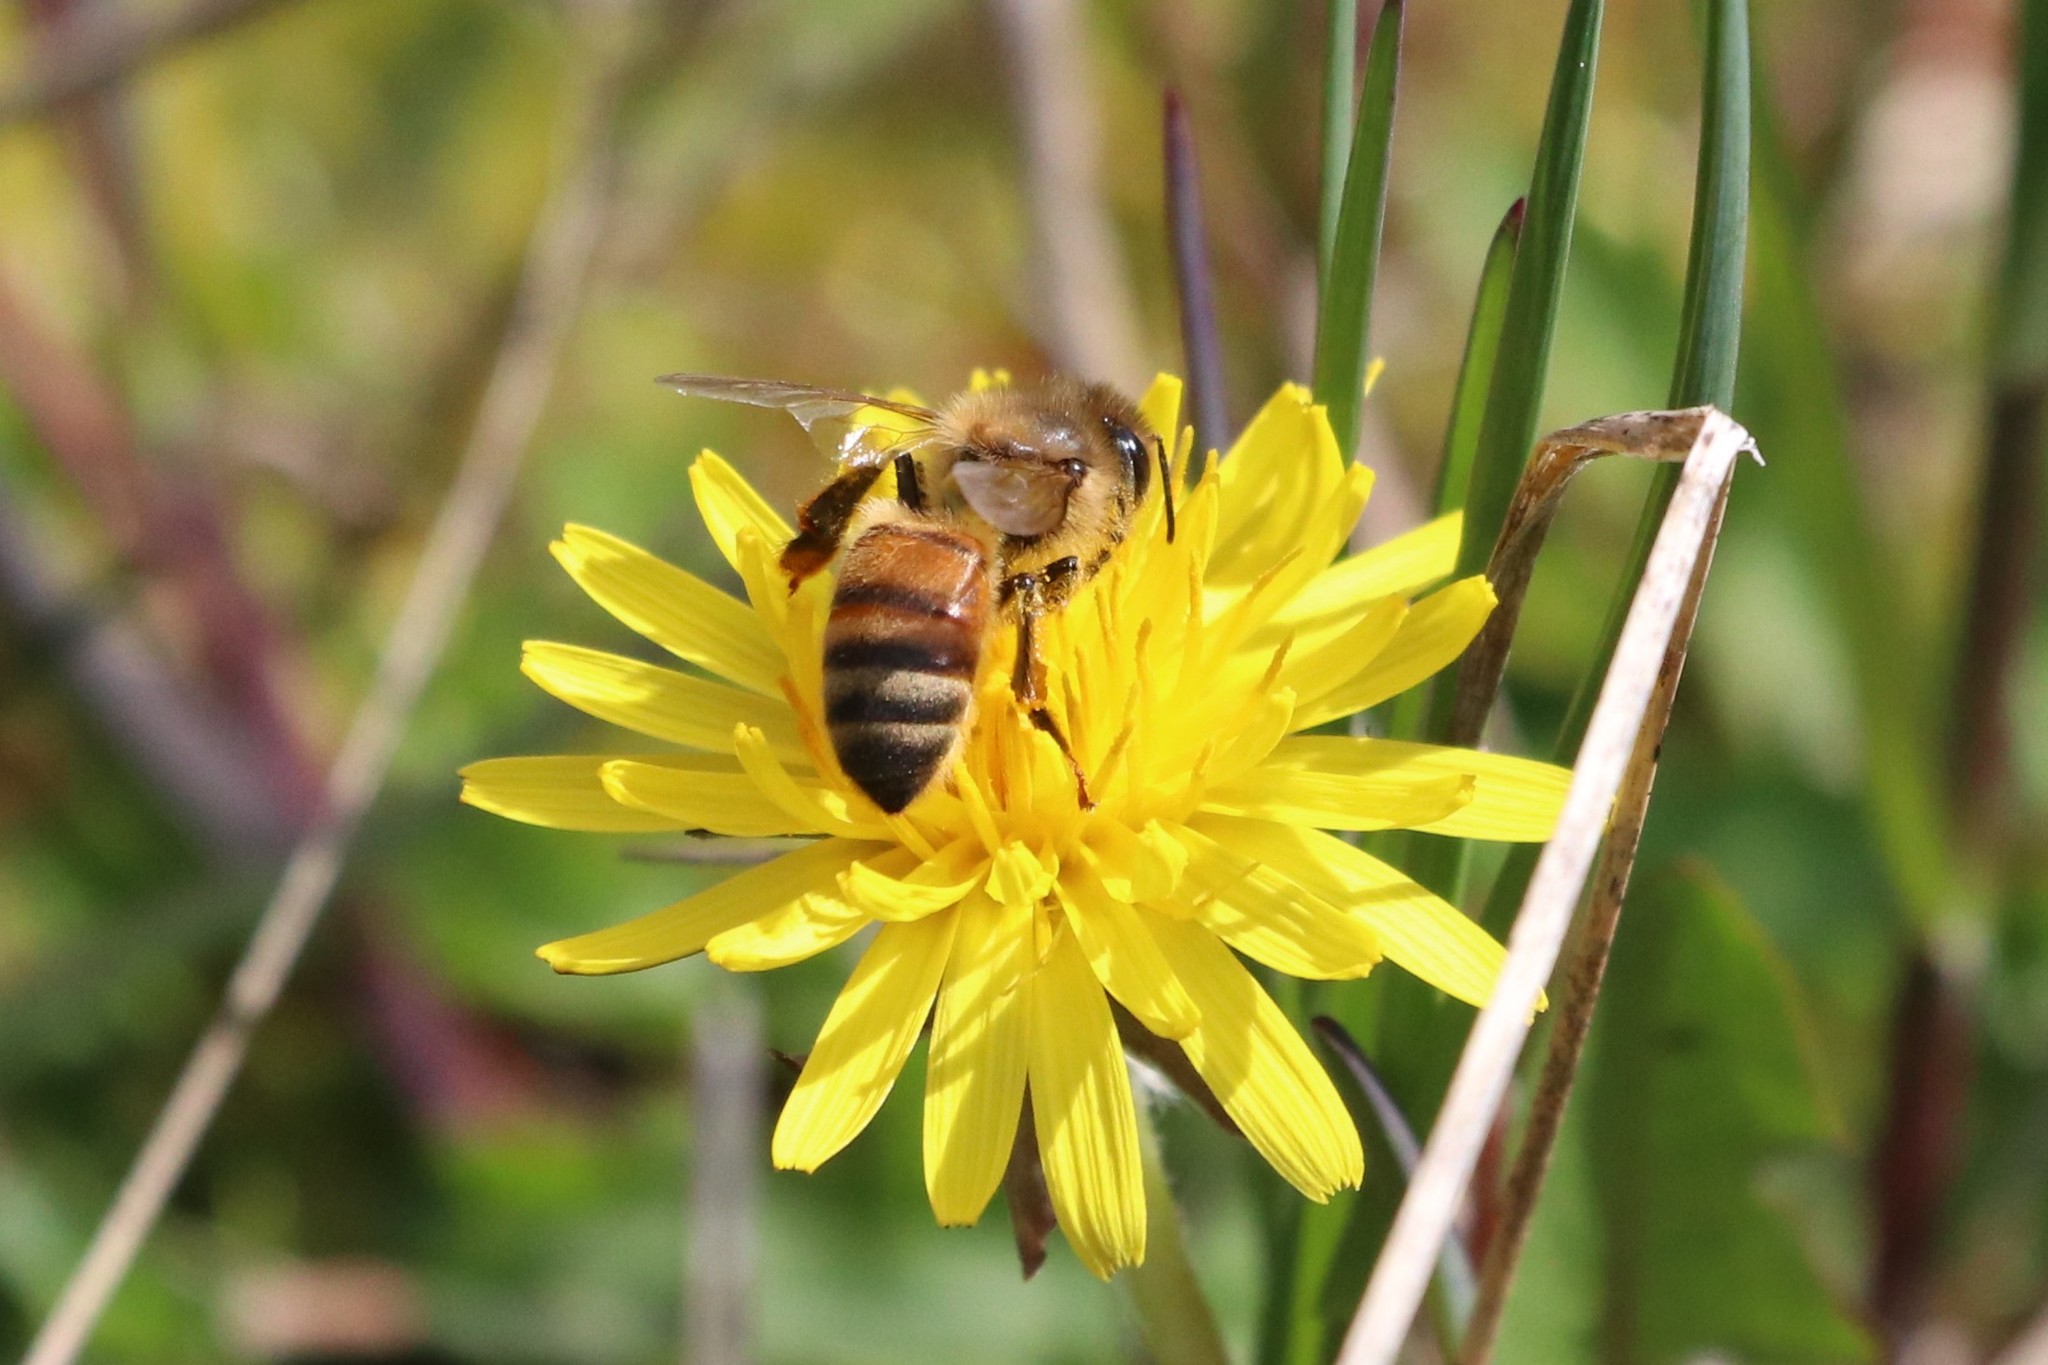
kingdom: Animalia
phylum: Arthropoda
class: Insecta
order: Hymenoptera
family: Apidae
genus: Apis
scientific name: Apis mellifera
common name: Honey bee
